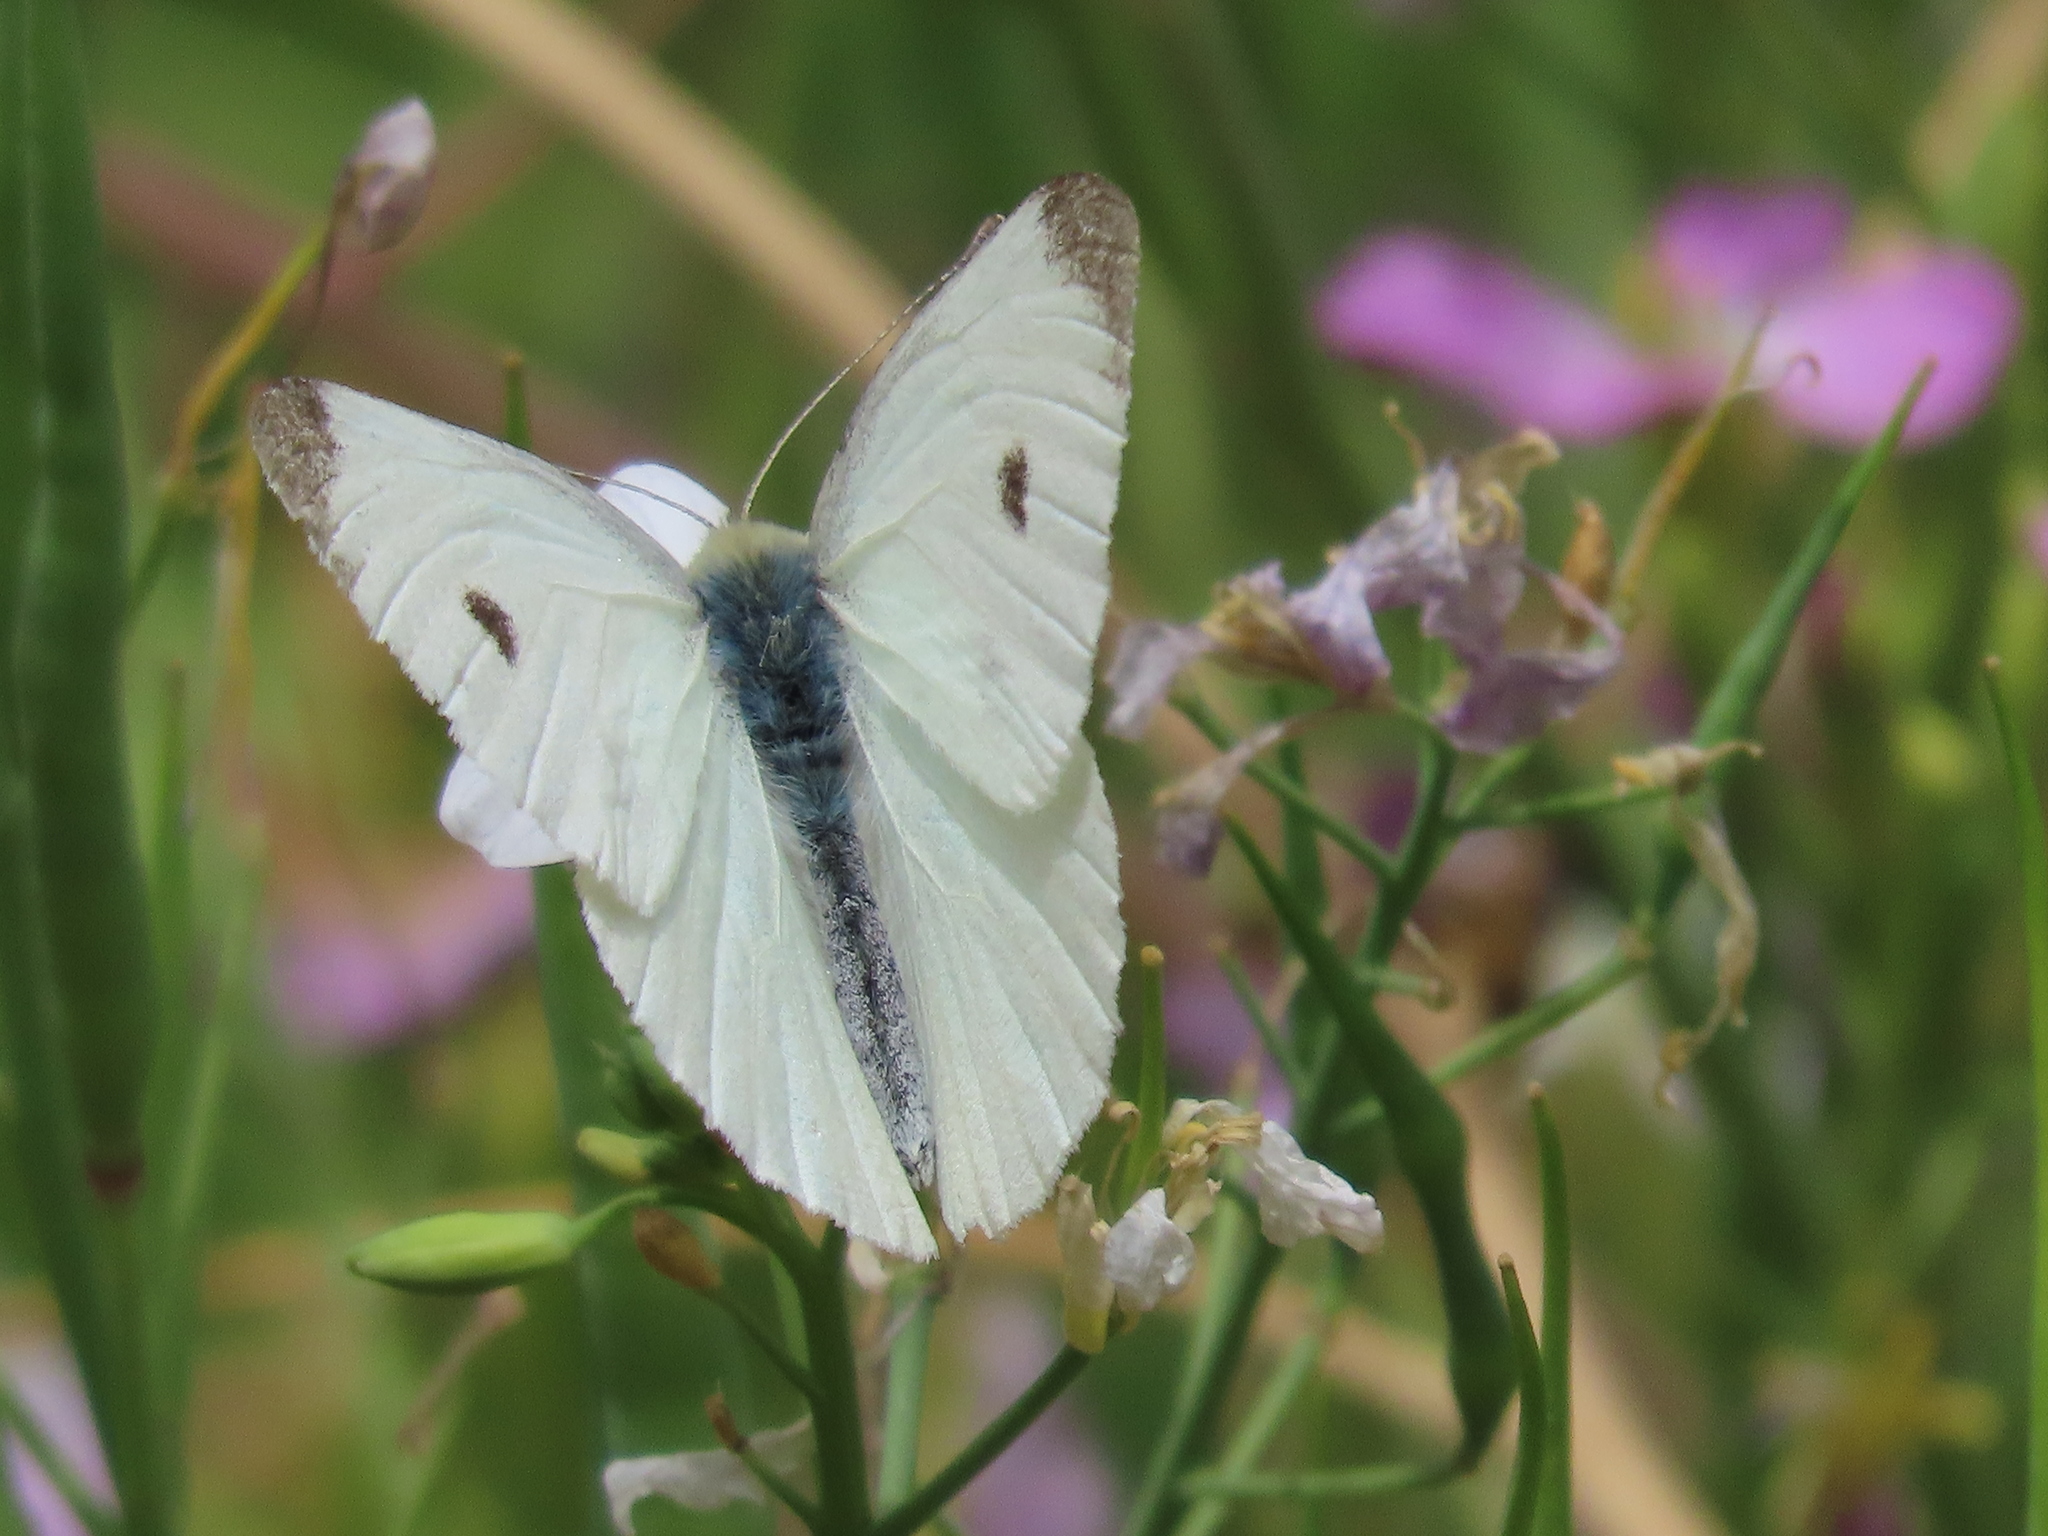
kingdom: Animalia
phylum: Arthropoda
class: Insecta
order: Lepidoptera
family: Pieridae
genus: Pieris
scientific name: Pieris rapae
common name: Small white
